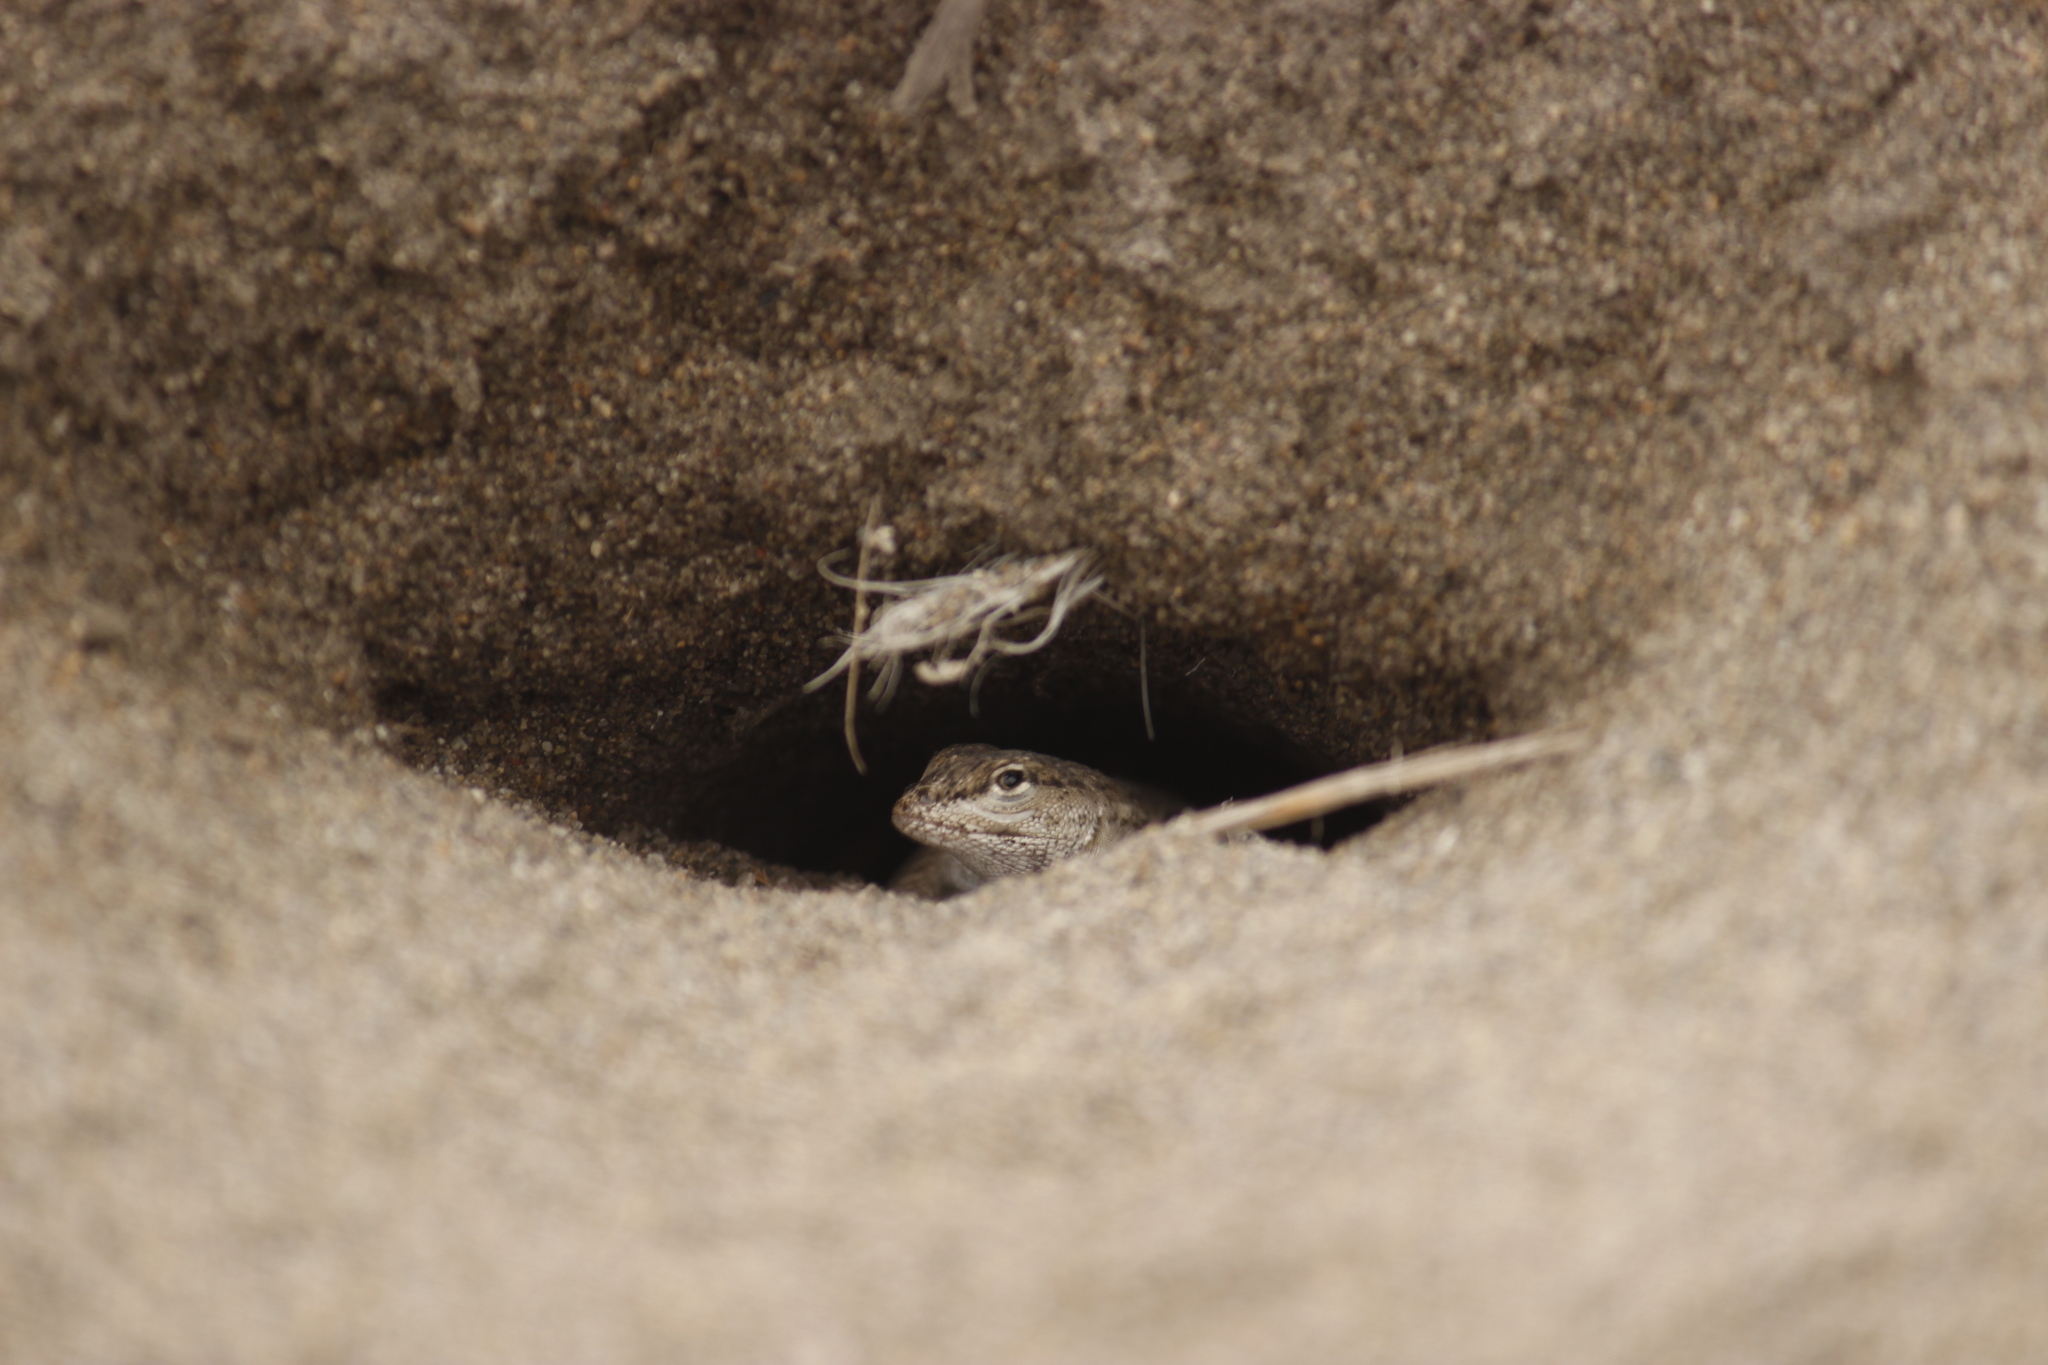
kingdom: Animalia
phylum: Chordata
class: Squamata
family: Tropiduridae
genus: Microlophus
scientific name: Microlophus thoracicus
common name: Tschudi's pacific iguana
